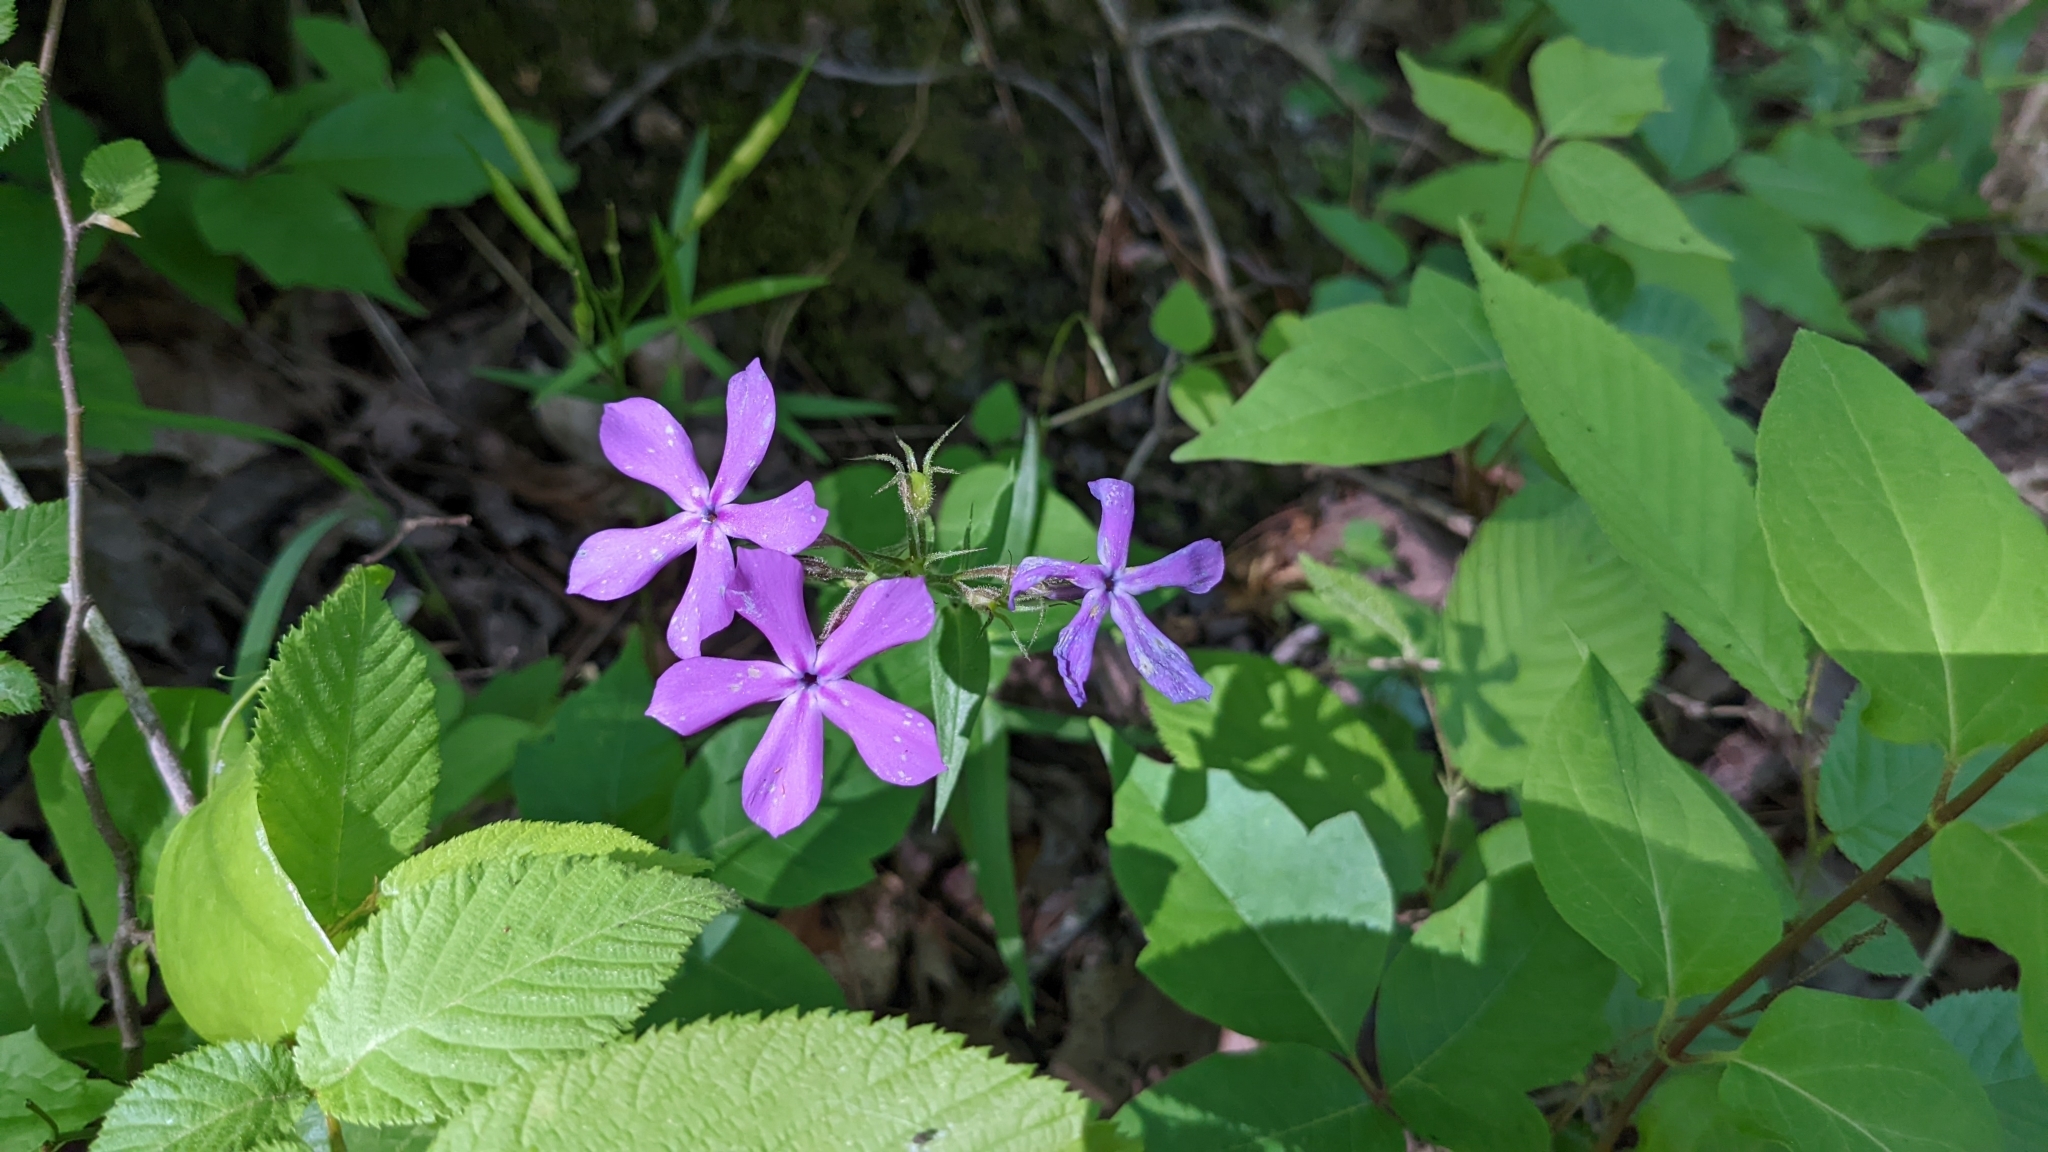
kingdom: Plantae
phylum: Tracheophyta
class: Magnoliopsida
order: Ericales
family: Polemoniaceae
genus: Phlox
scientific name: Phlox pilosa
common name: Prairie phlox
